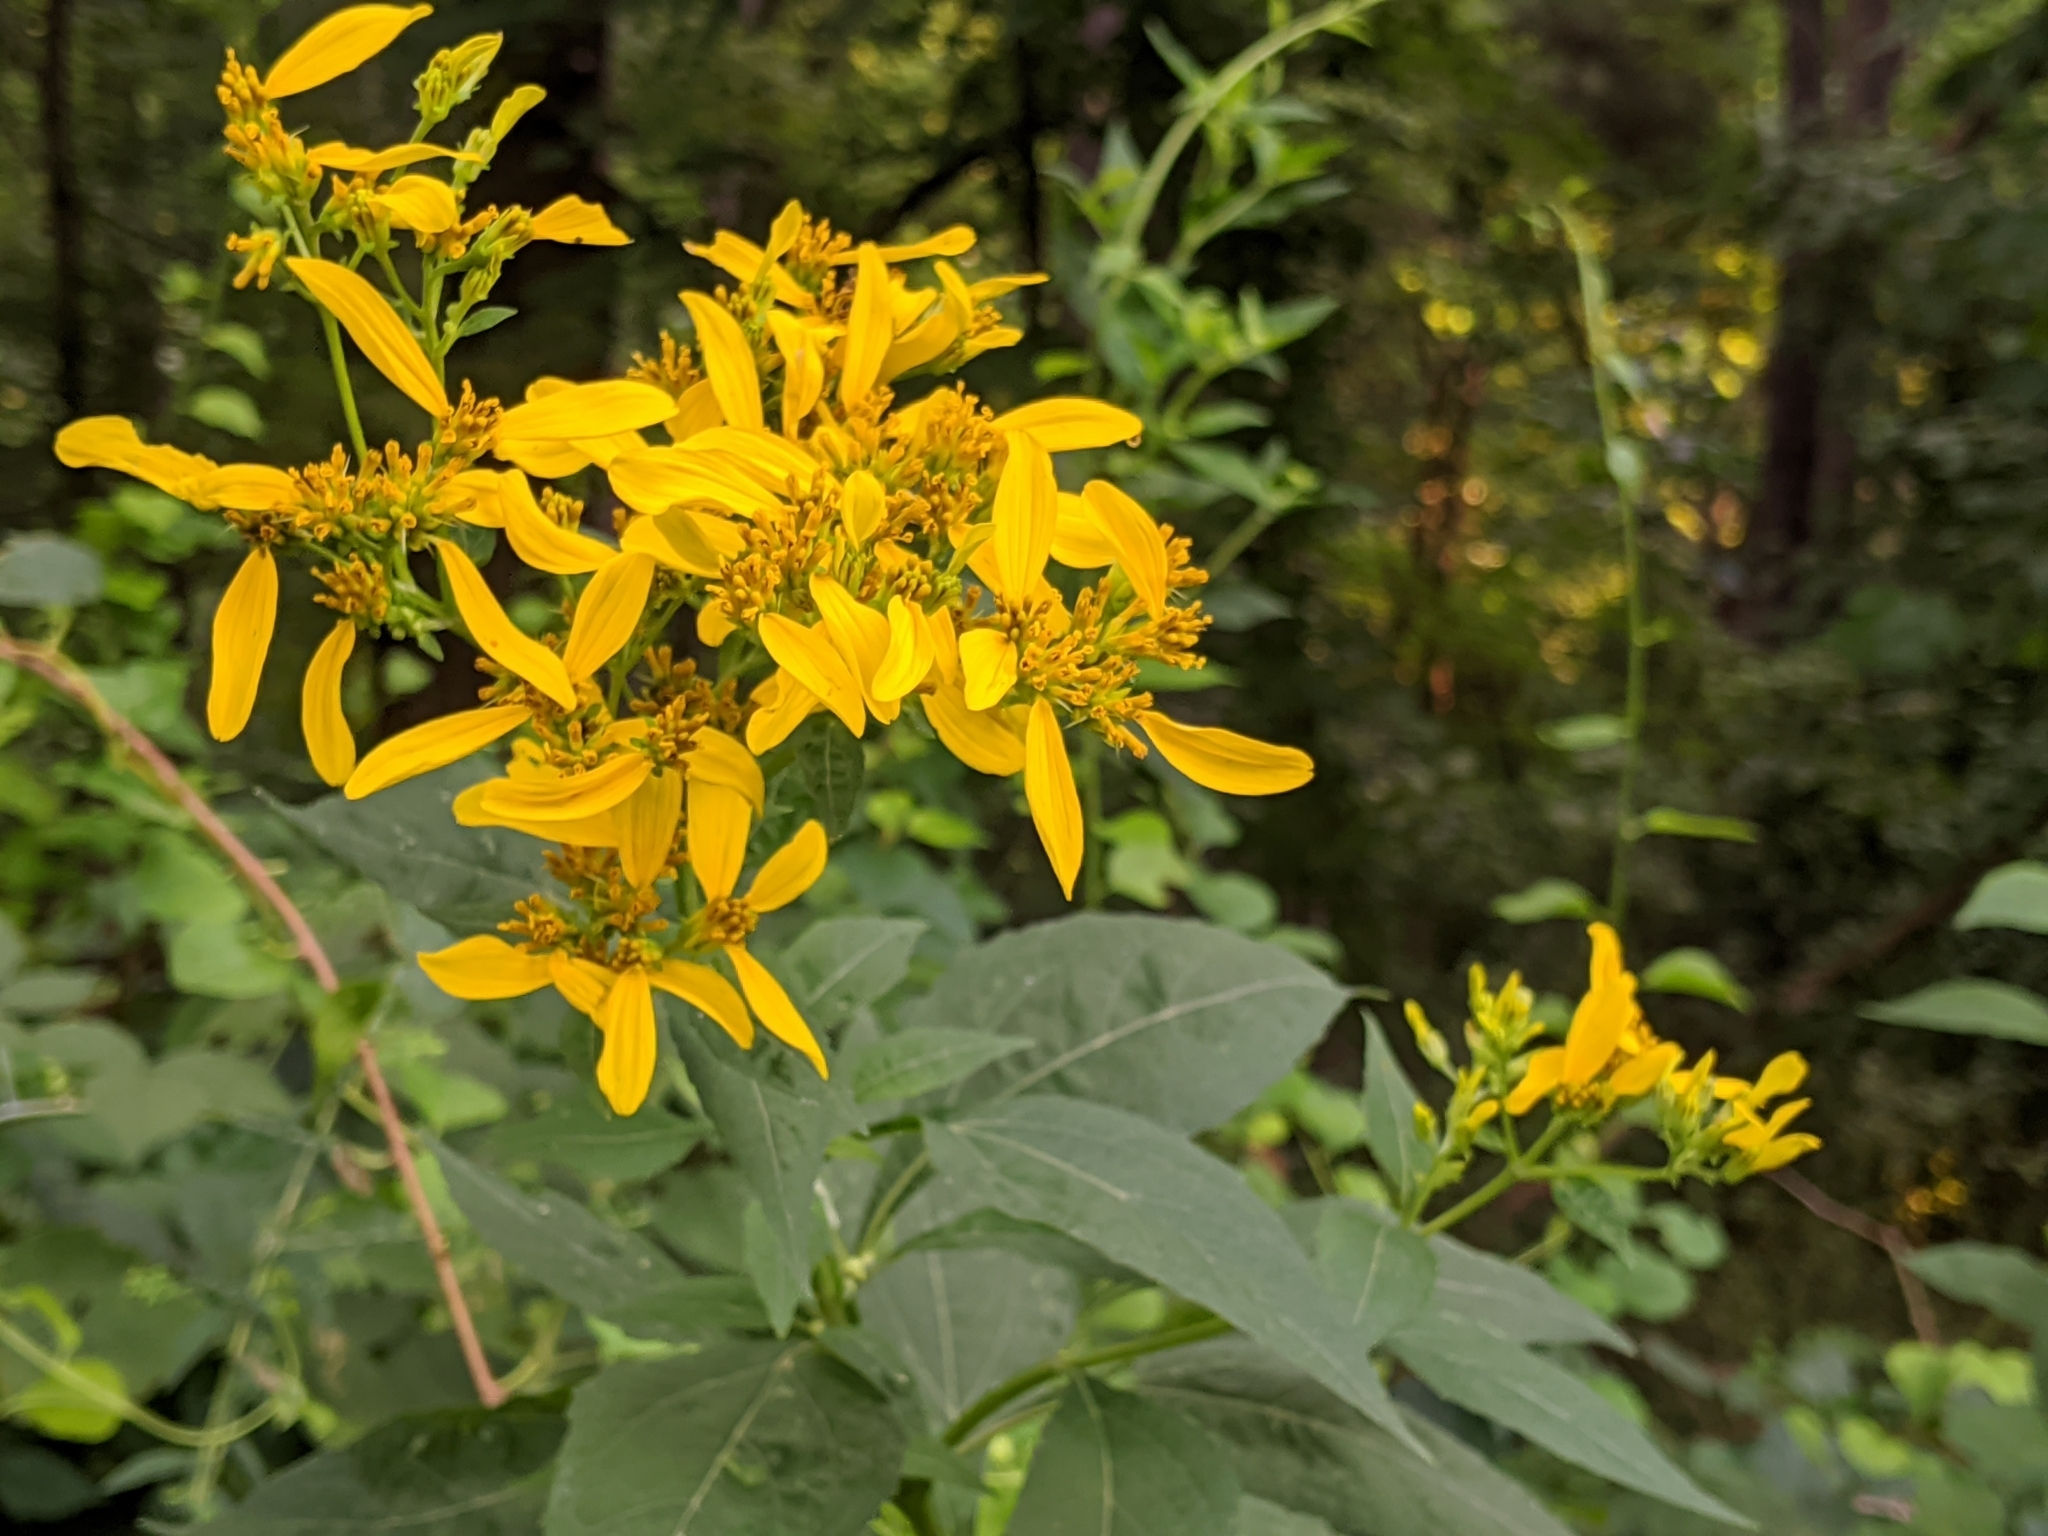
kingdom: Plantae
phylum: Tracheophyta
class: Magnoliopsida
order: Asterales
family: Asteraceae
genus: Verbesina
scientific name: Verbesina occidentalis
